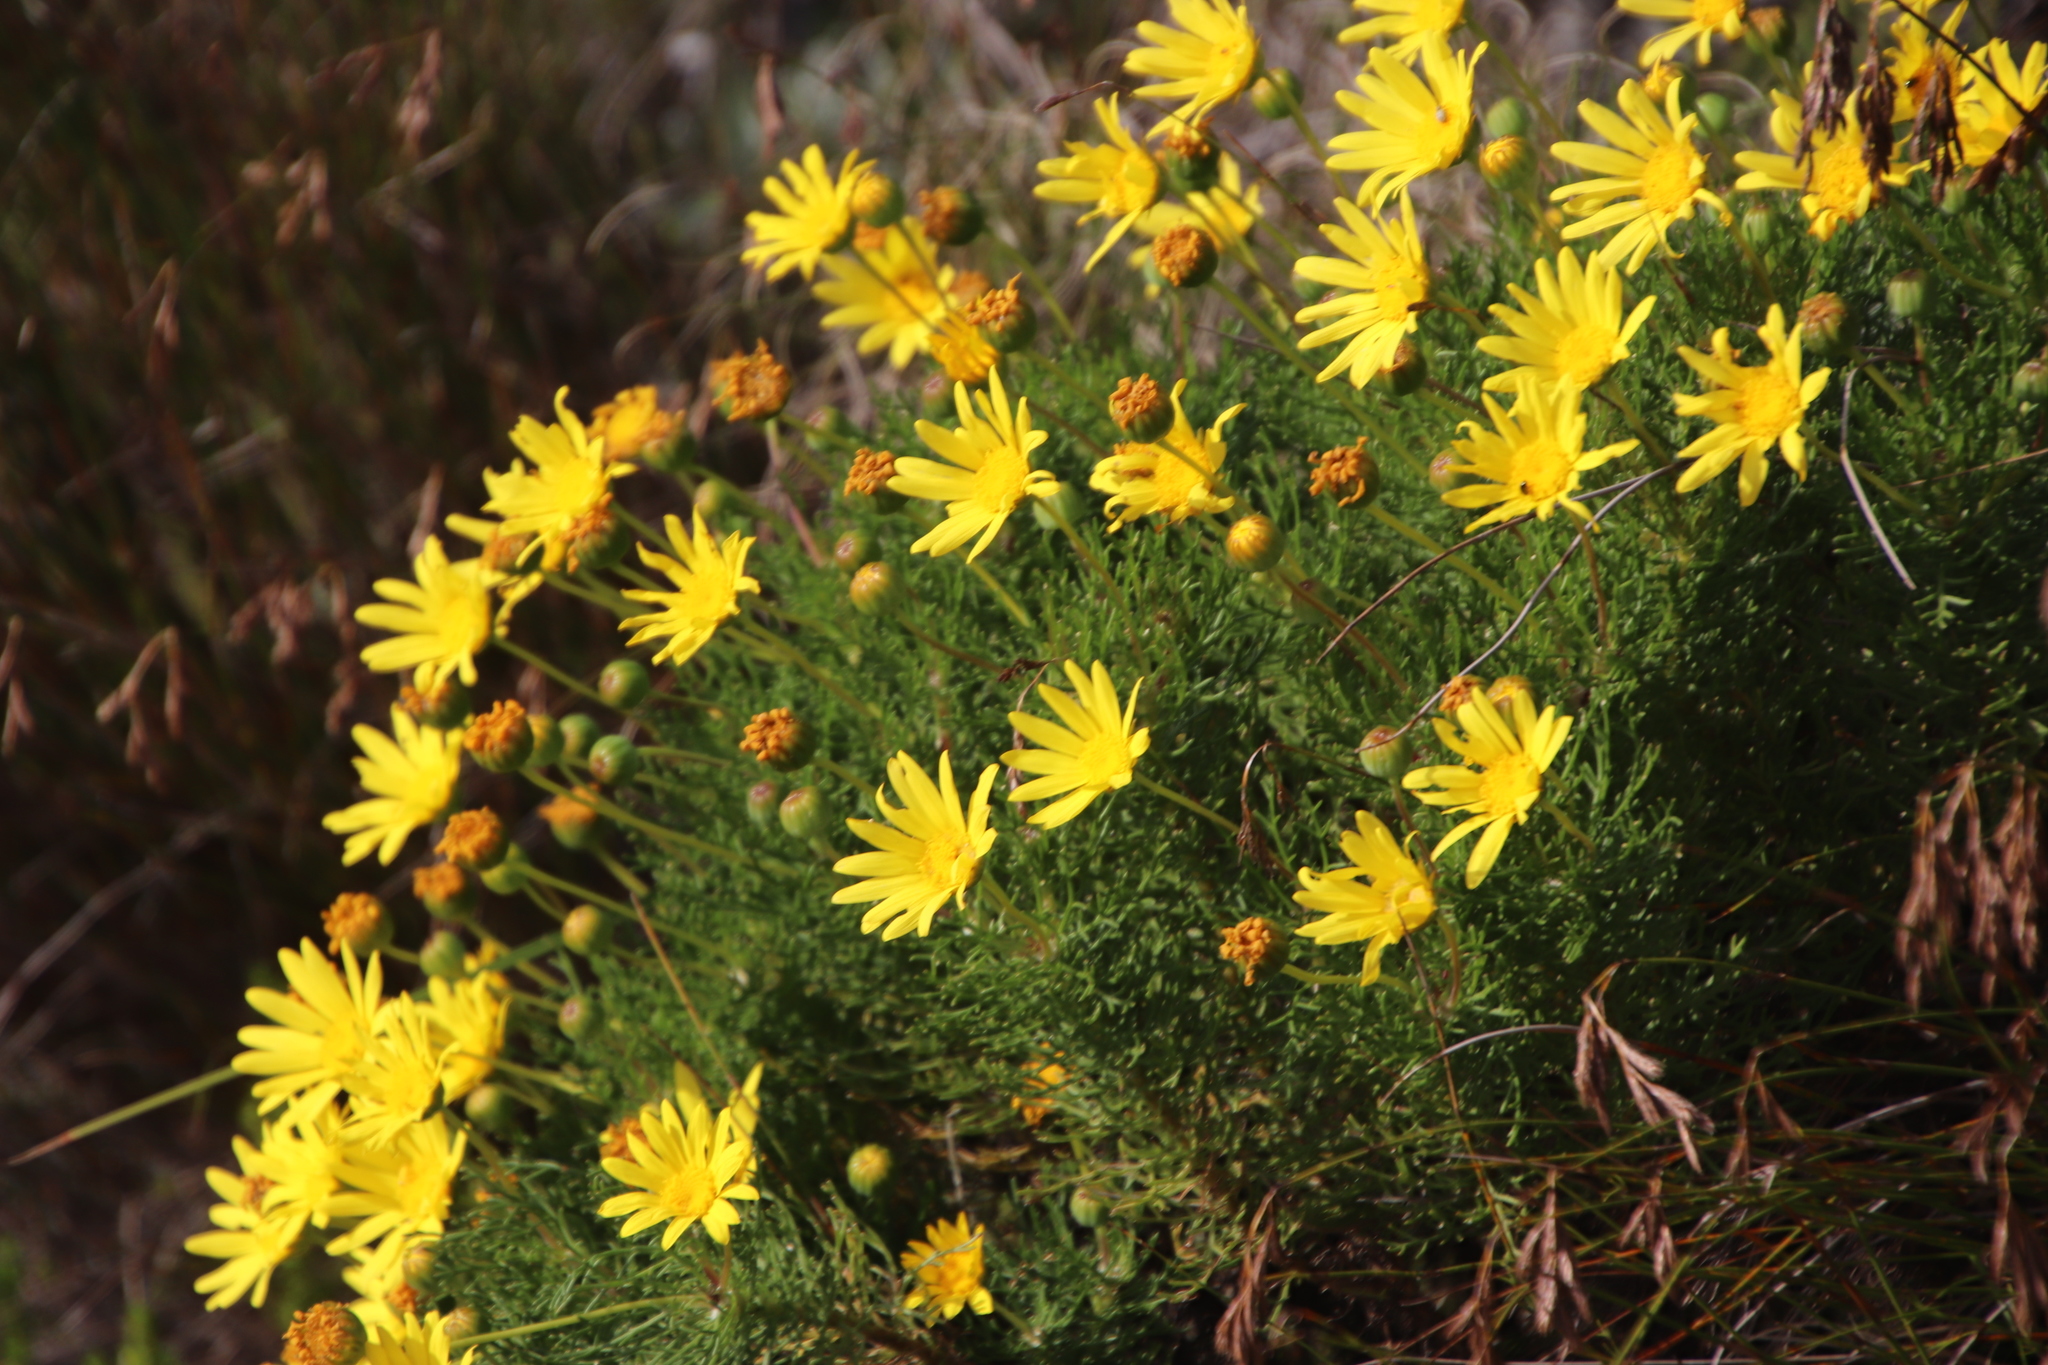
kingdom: Plantae
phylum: Tracheophyta
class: Magnoliopsida
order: Asterales
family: Asteraceae
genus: Euryops
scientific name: Euryops abrotanifolius
